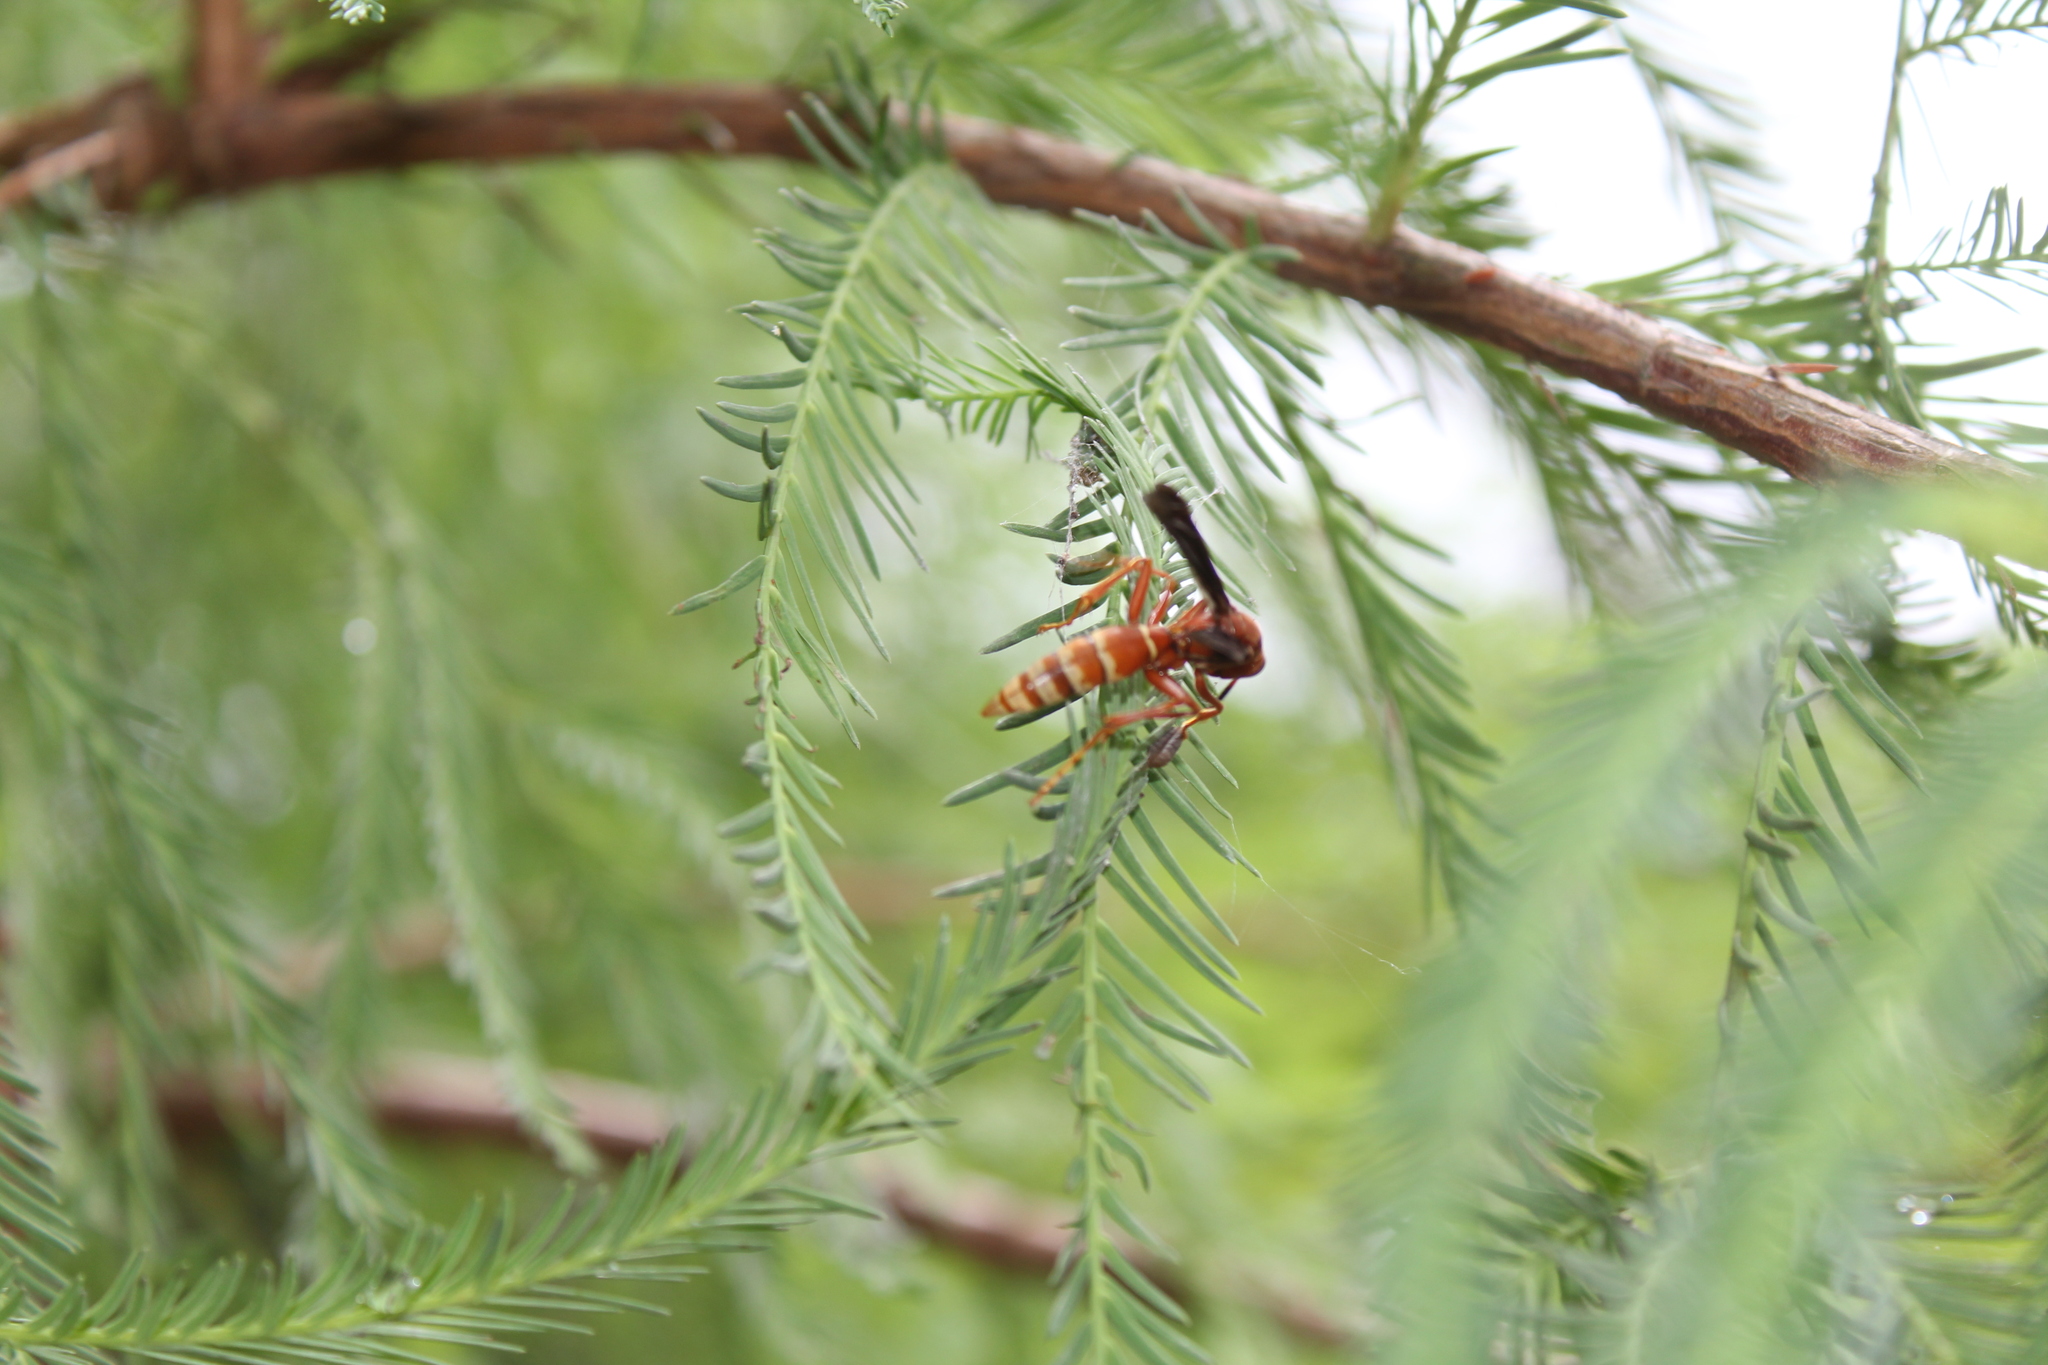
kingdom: Animalia
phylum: Arthropoda
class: Insecta
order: Hymenoptera
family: Eumenidae
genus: Polistes
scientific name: Polistes mexicanus
